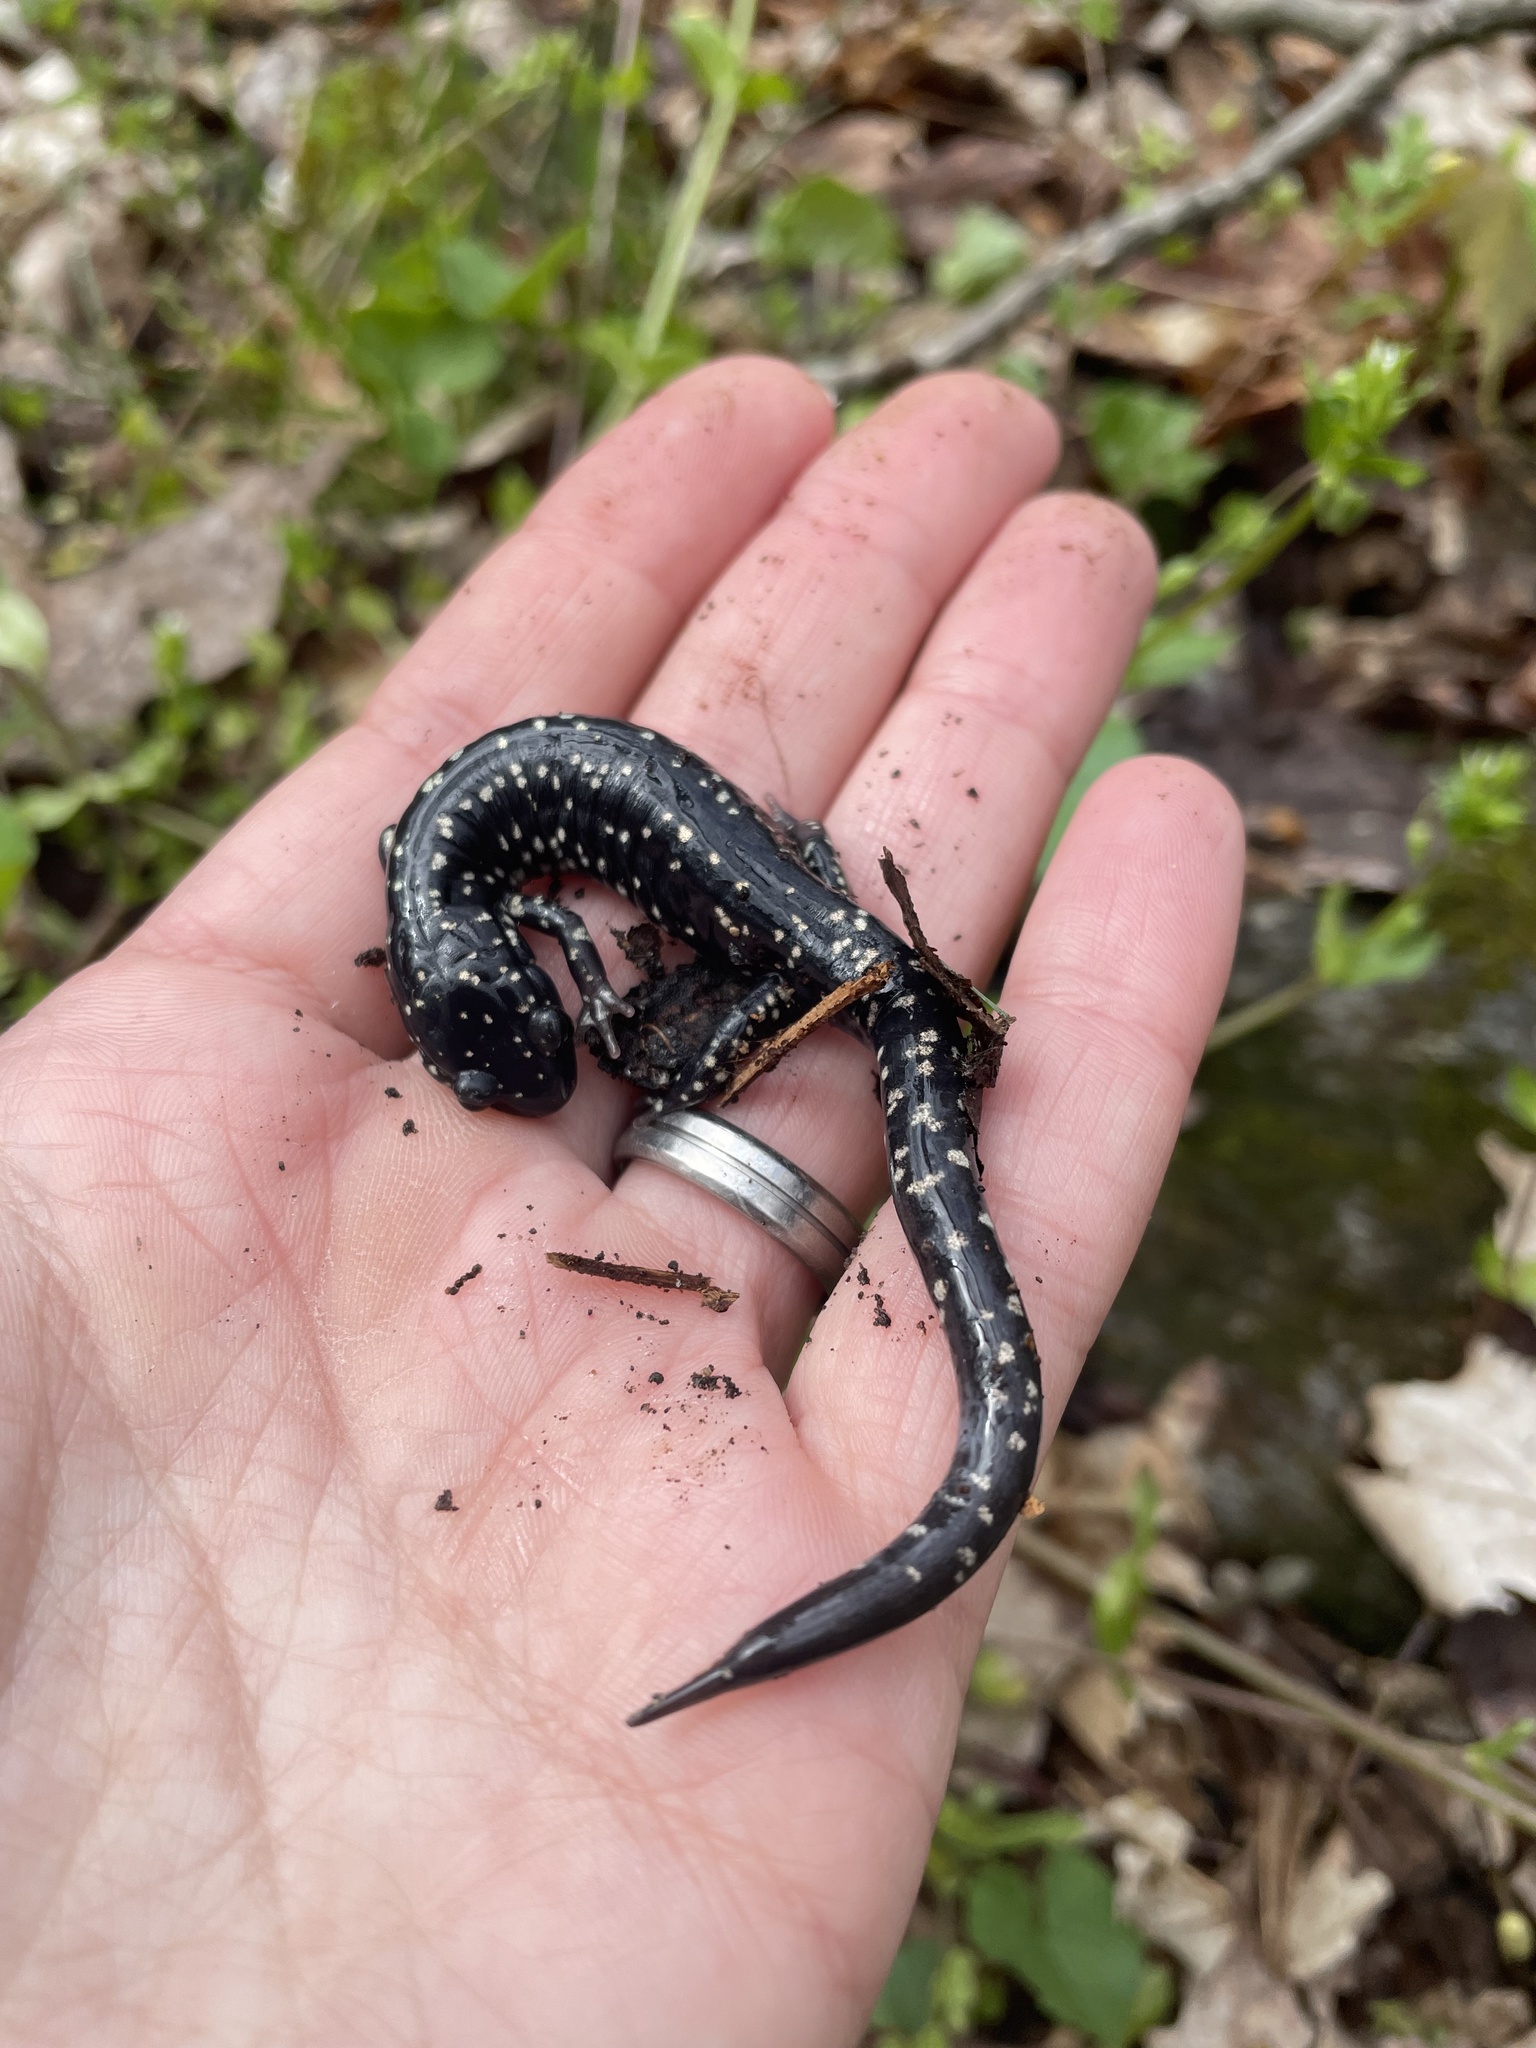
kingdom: Animalia
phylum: Chordata
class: Amphibia
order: Caudata
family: Plethodontidae
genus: Plethodon
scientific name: Plethodon glutinosus
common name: Northern slimy salamander
